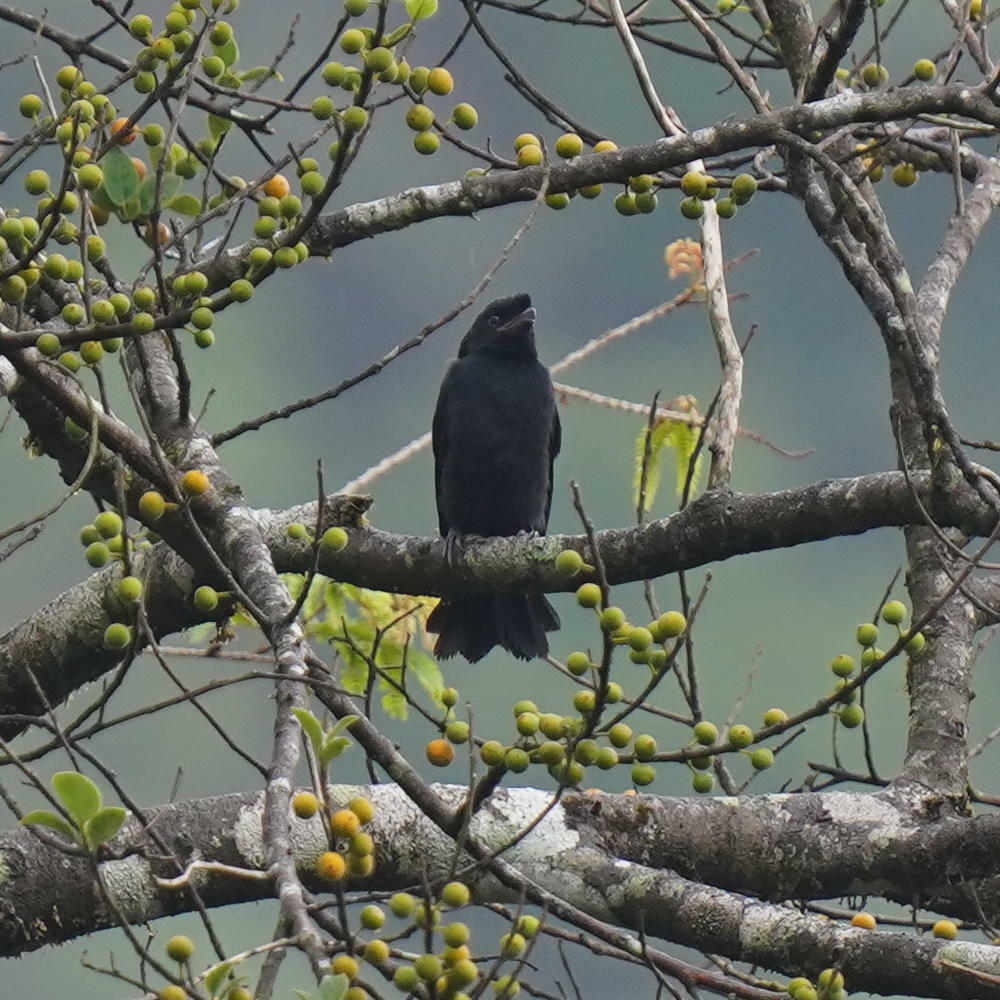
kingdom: Animalia
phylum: Chordata
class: Aves
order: Passeriformes
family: Dicruridae
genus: Dicrurus
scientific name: Dicrurus paradiseus
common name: Greater racket-tailed drongo
